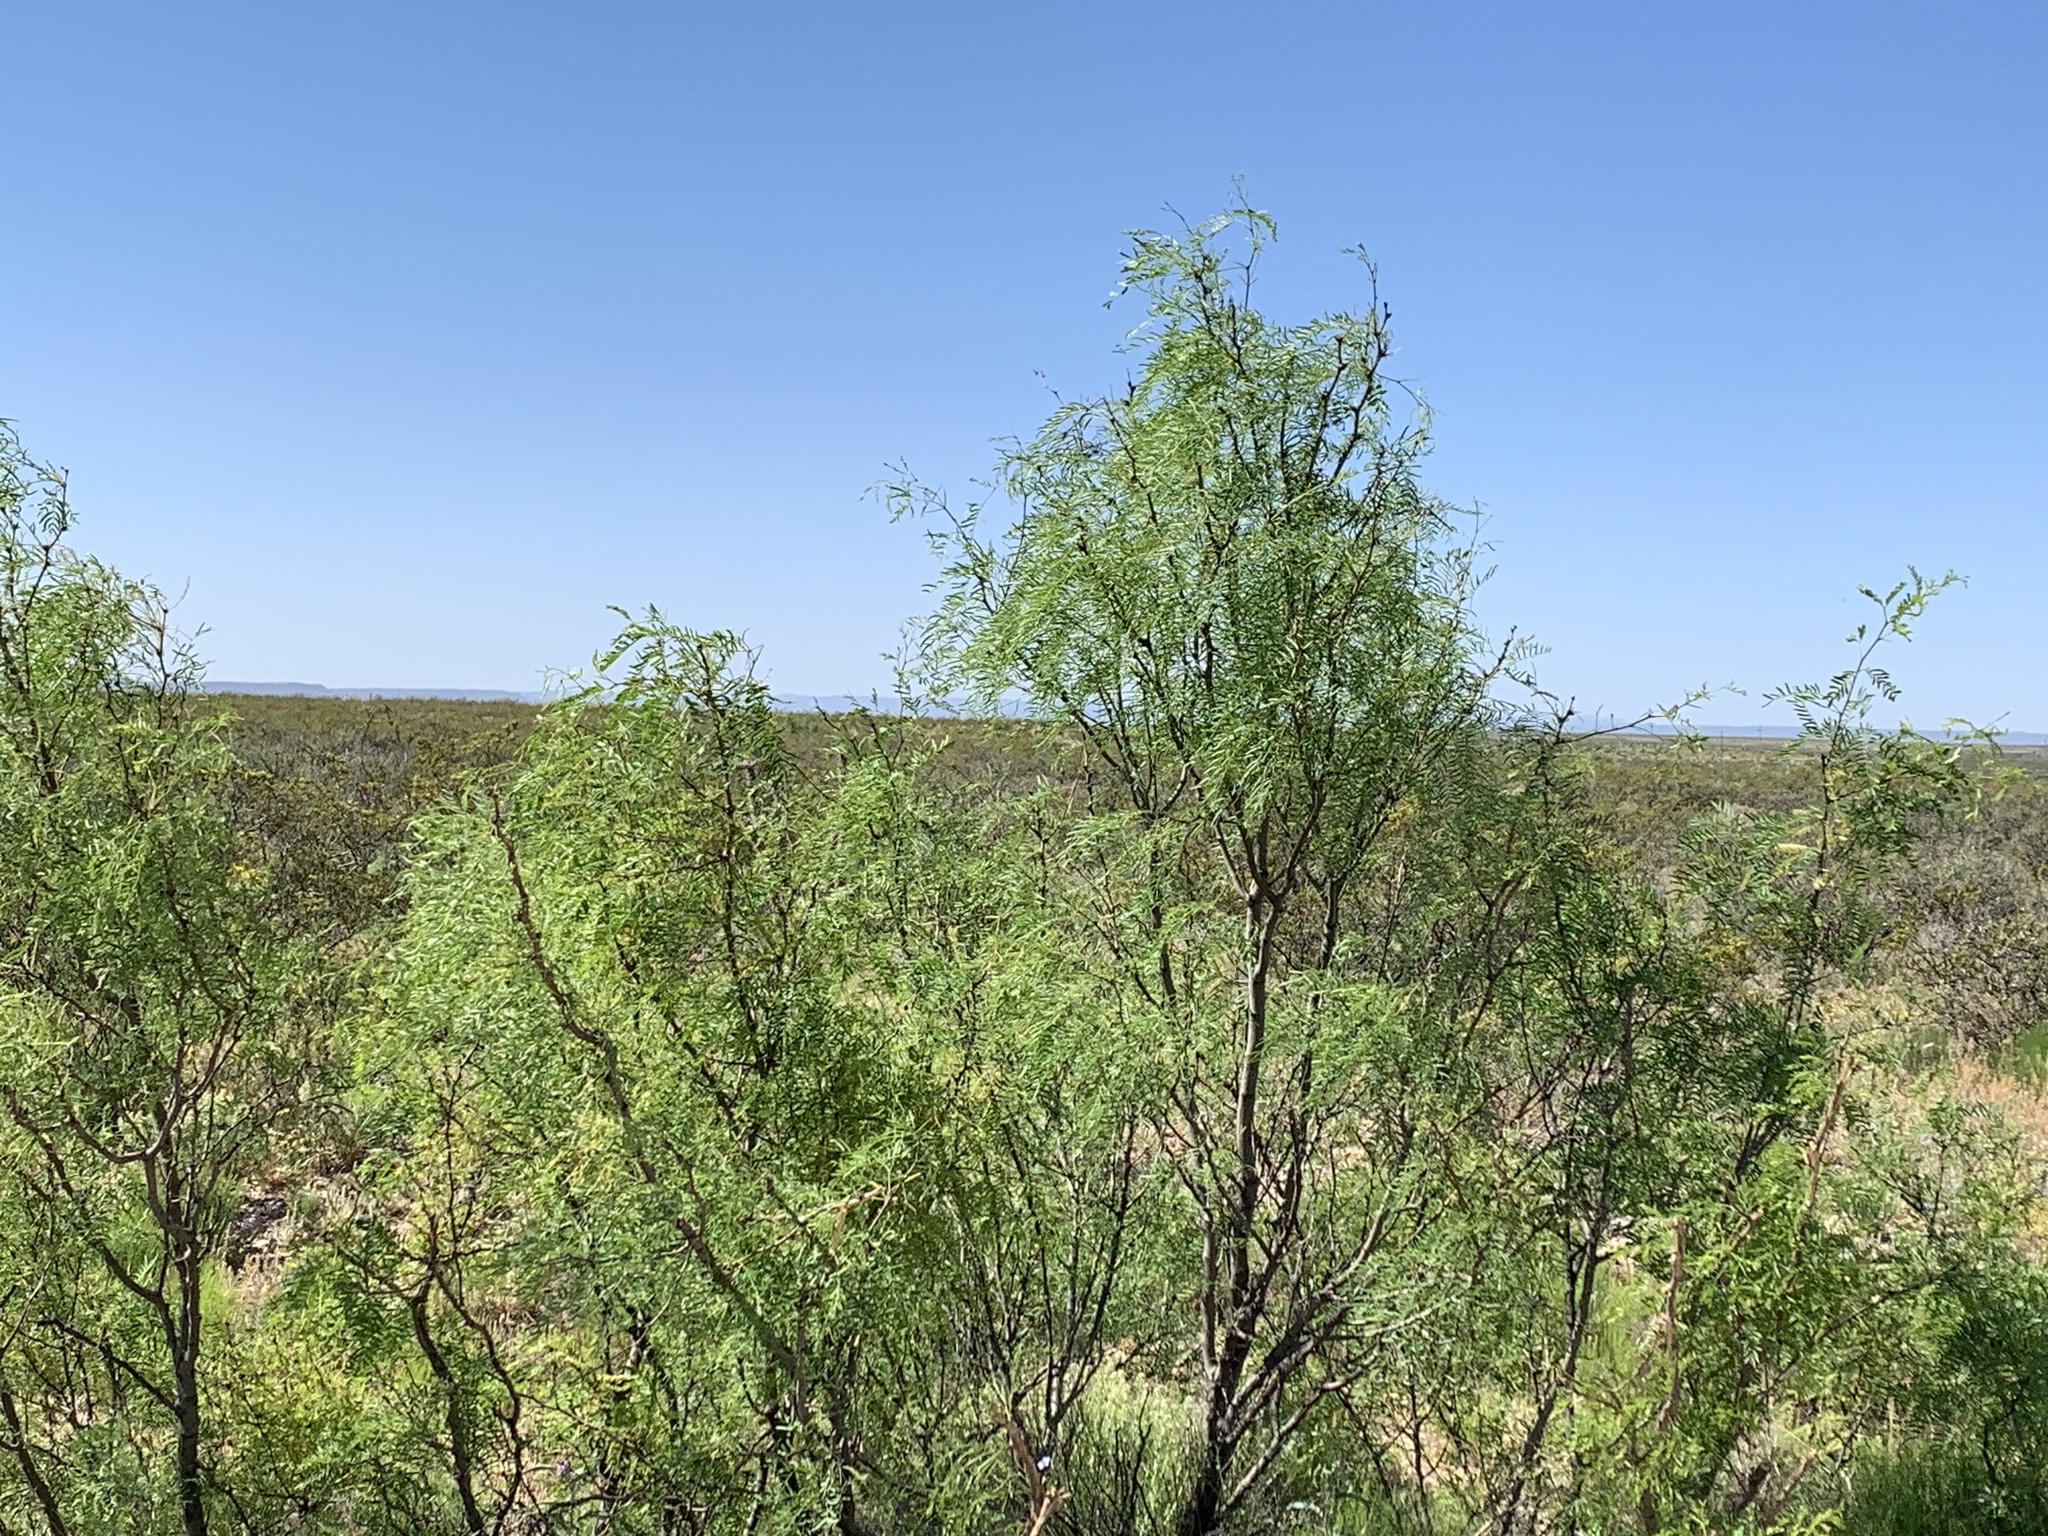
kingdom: Plantae
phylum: Tracheophyta
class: Magnoliopsida
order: Fabales
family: Fabaceae
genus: Prosopis
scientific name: Prosopis glandulosa
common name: Honey mesquite
